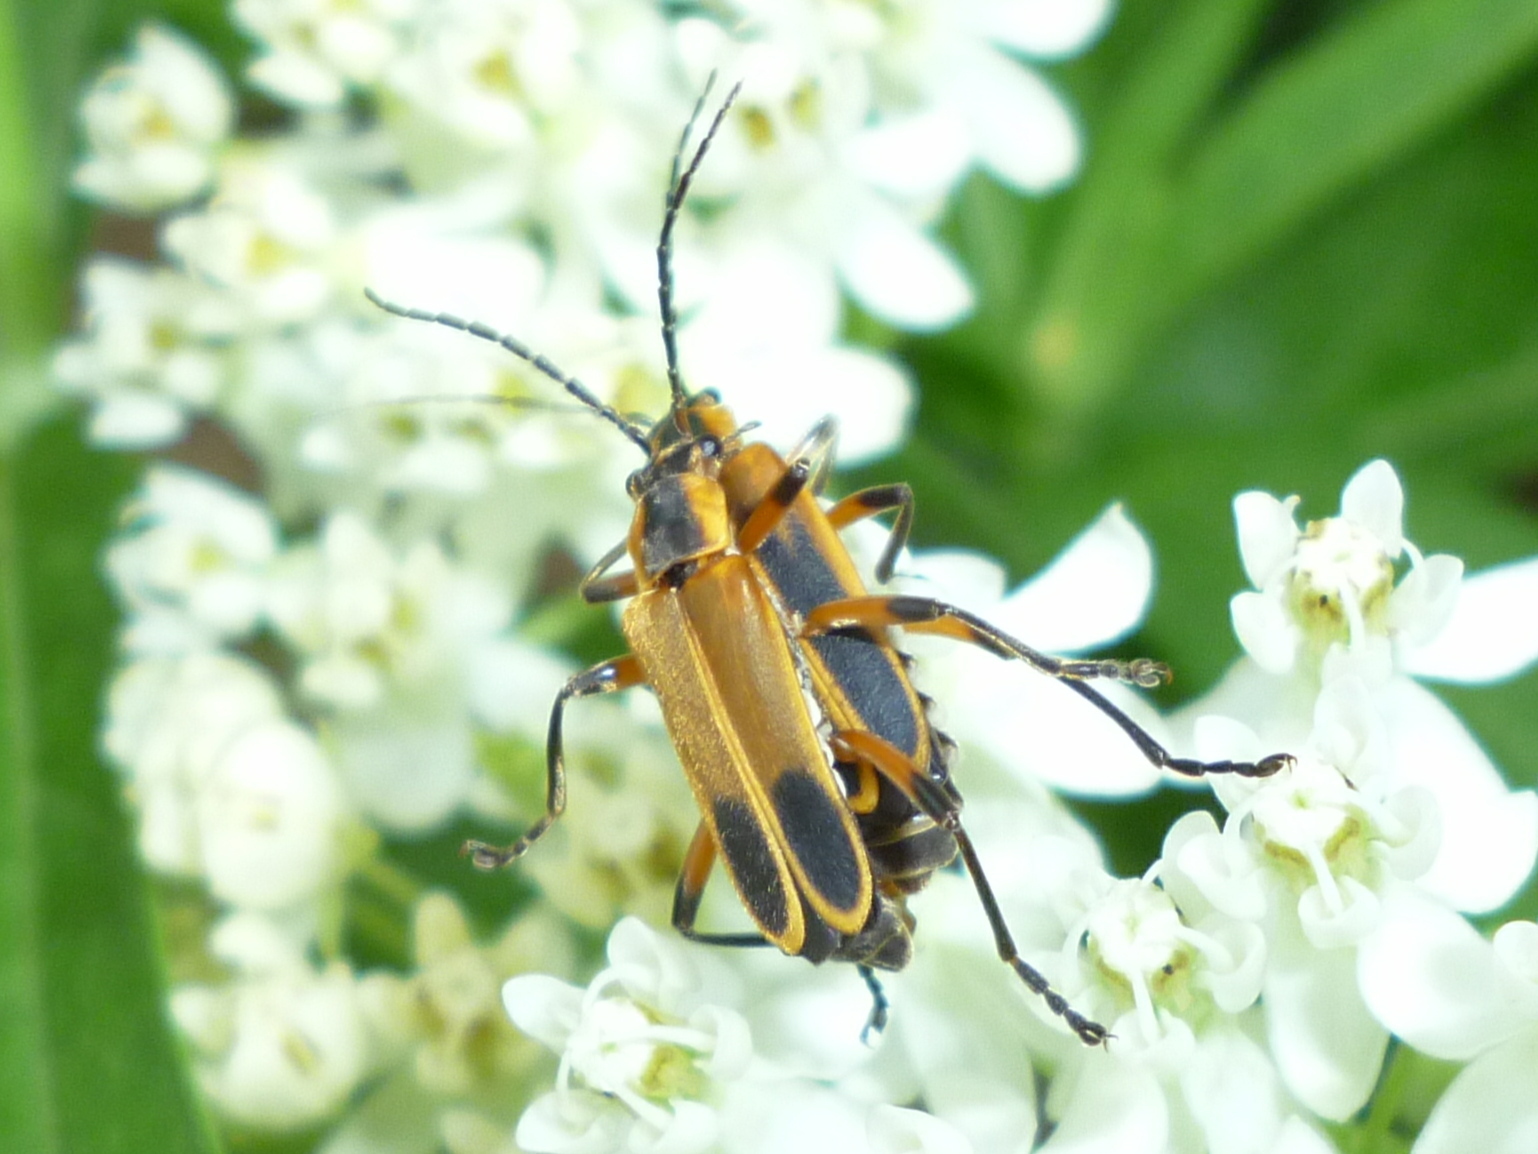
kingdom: Animalia
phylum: Arthropoda
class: Insecta
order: Coleoptera
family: Cantharidae
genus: Chauliognathus
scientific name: Chauliognathus marginatus
